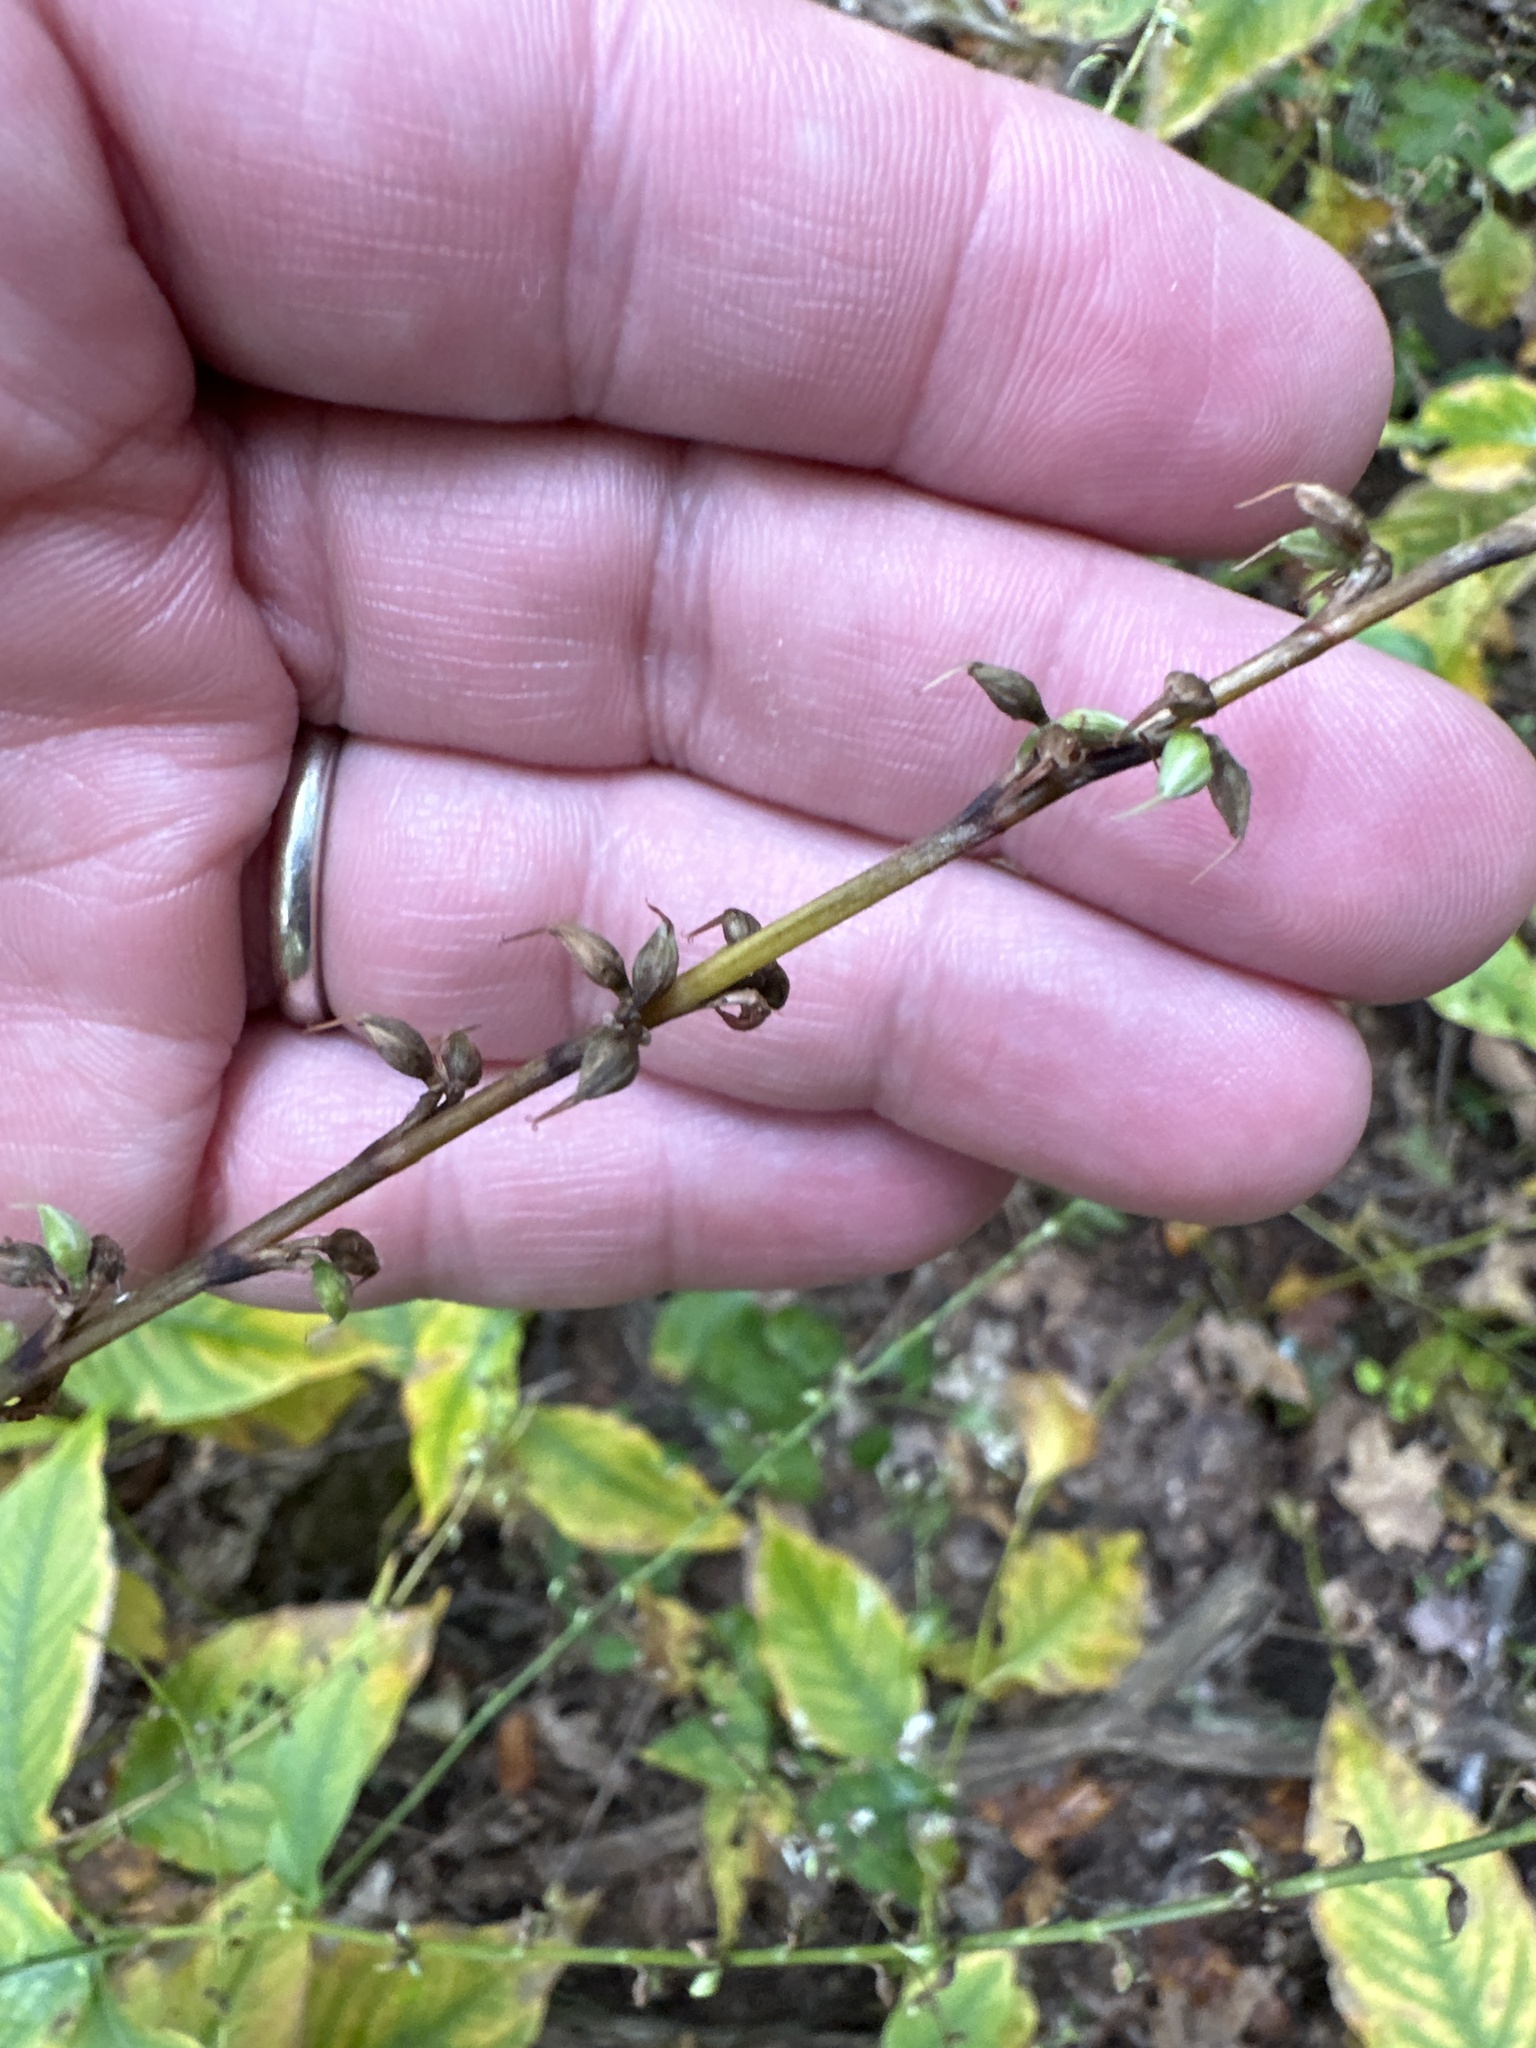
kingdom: Plantae
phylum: Tracheophyta
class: Magnoliopsida
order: Caryophyllales
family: Polygonaceae
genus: Persicaria
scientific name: Persicaria virginiana
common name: Jumpseed
